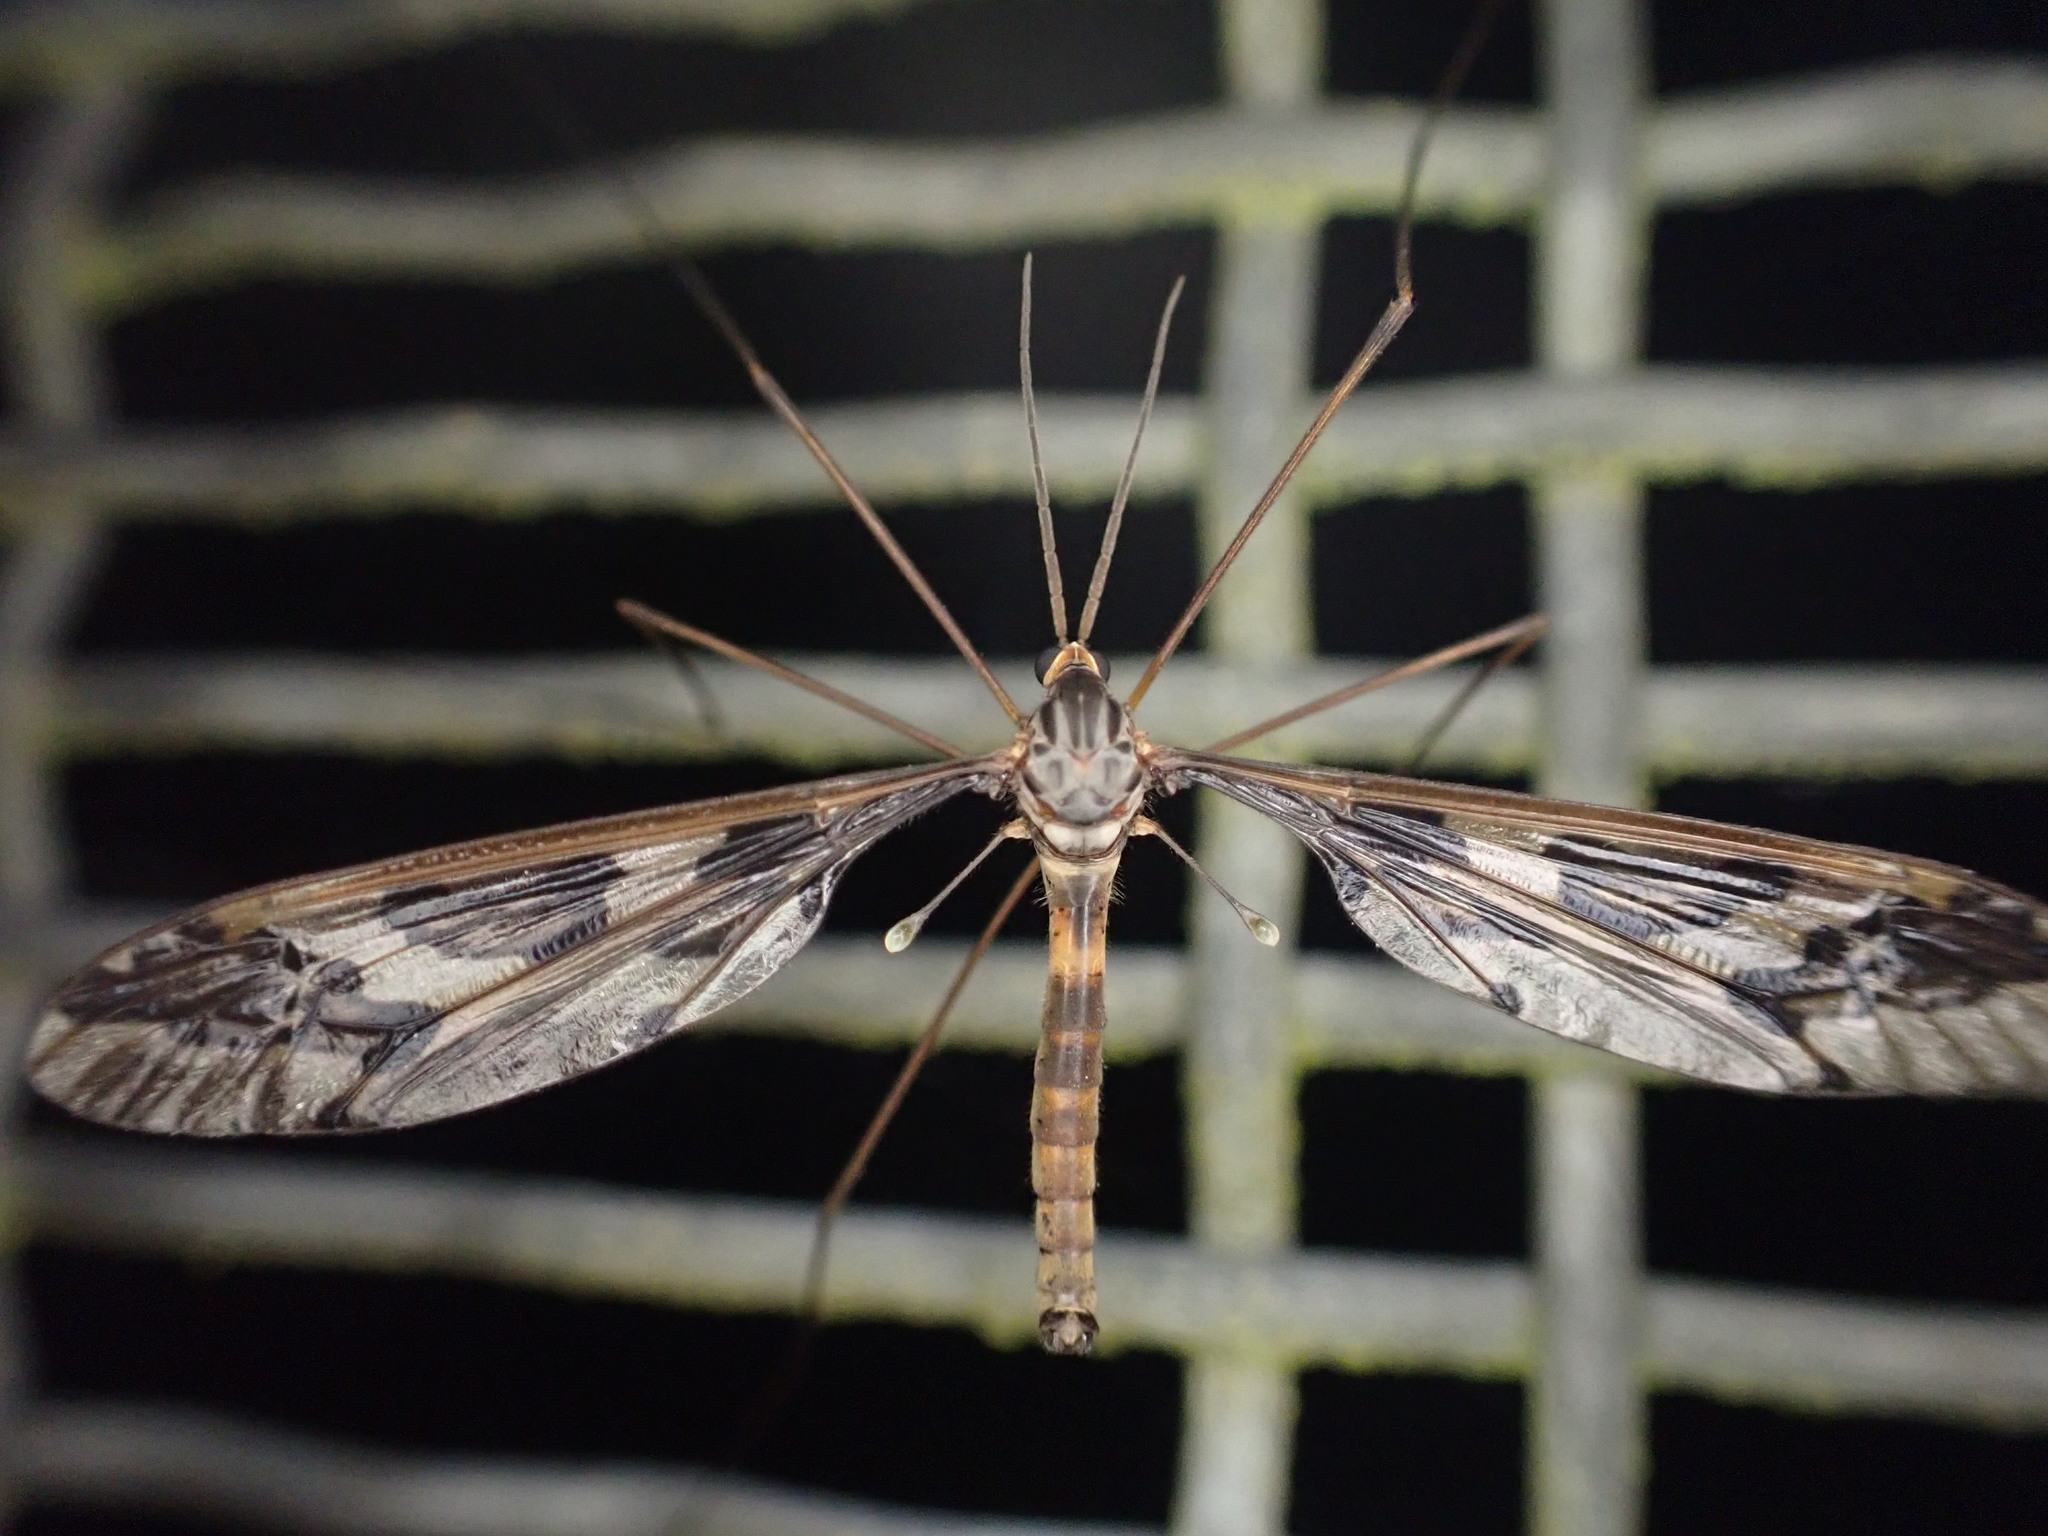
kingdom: Animalia
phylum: Arthropoda
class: Insecta
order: Diptera
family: Tipulidae
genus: Leptotarsus
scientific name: Leptotarsus binotatus
